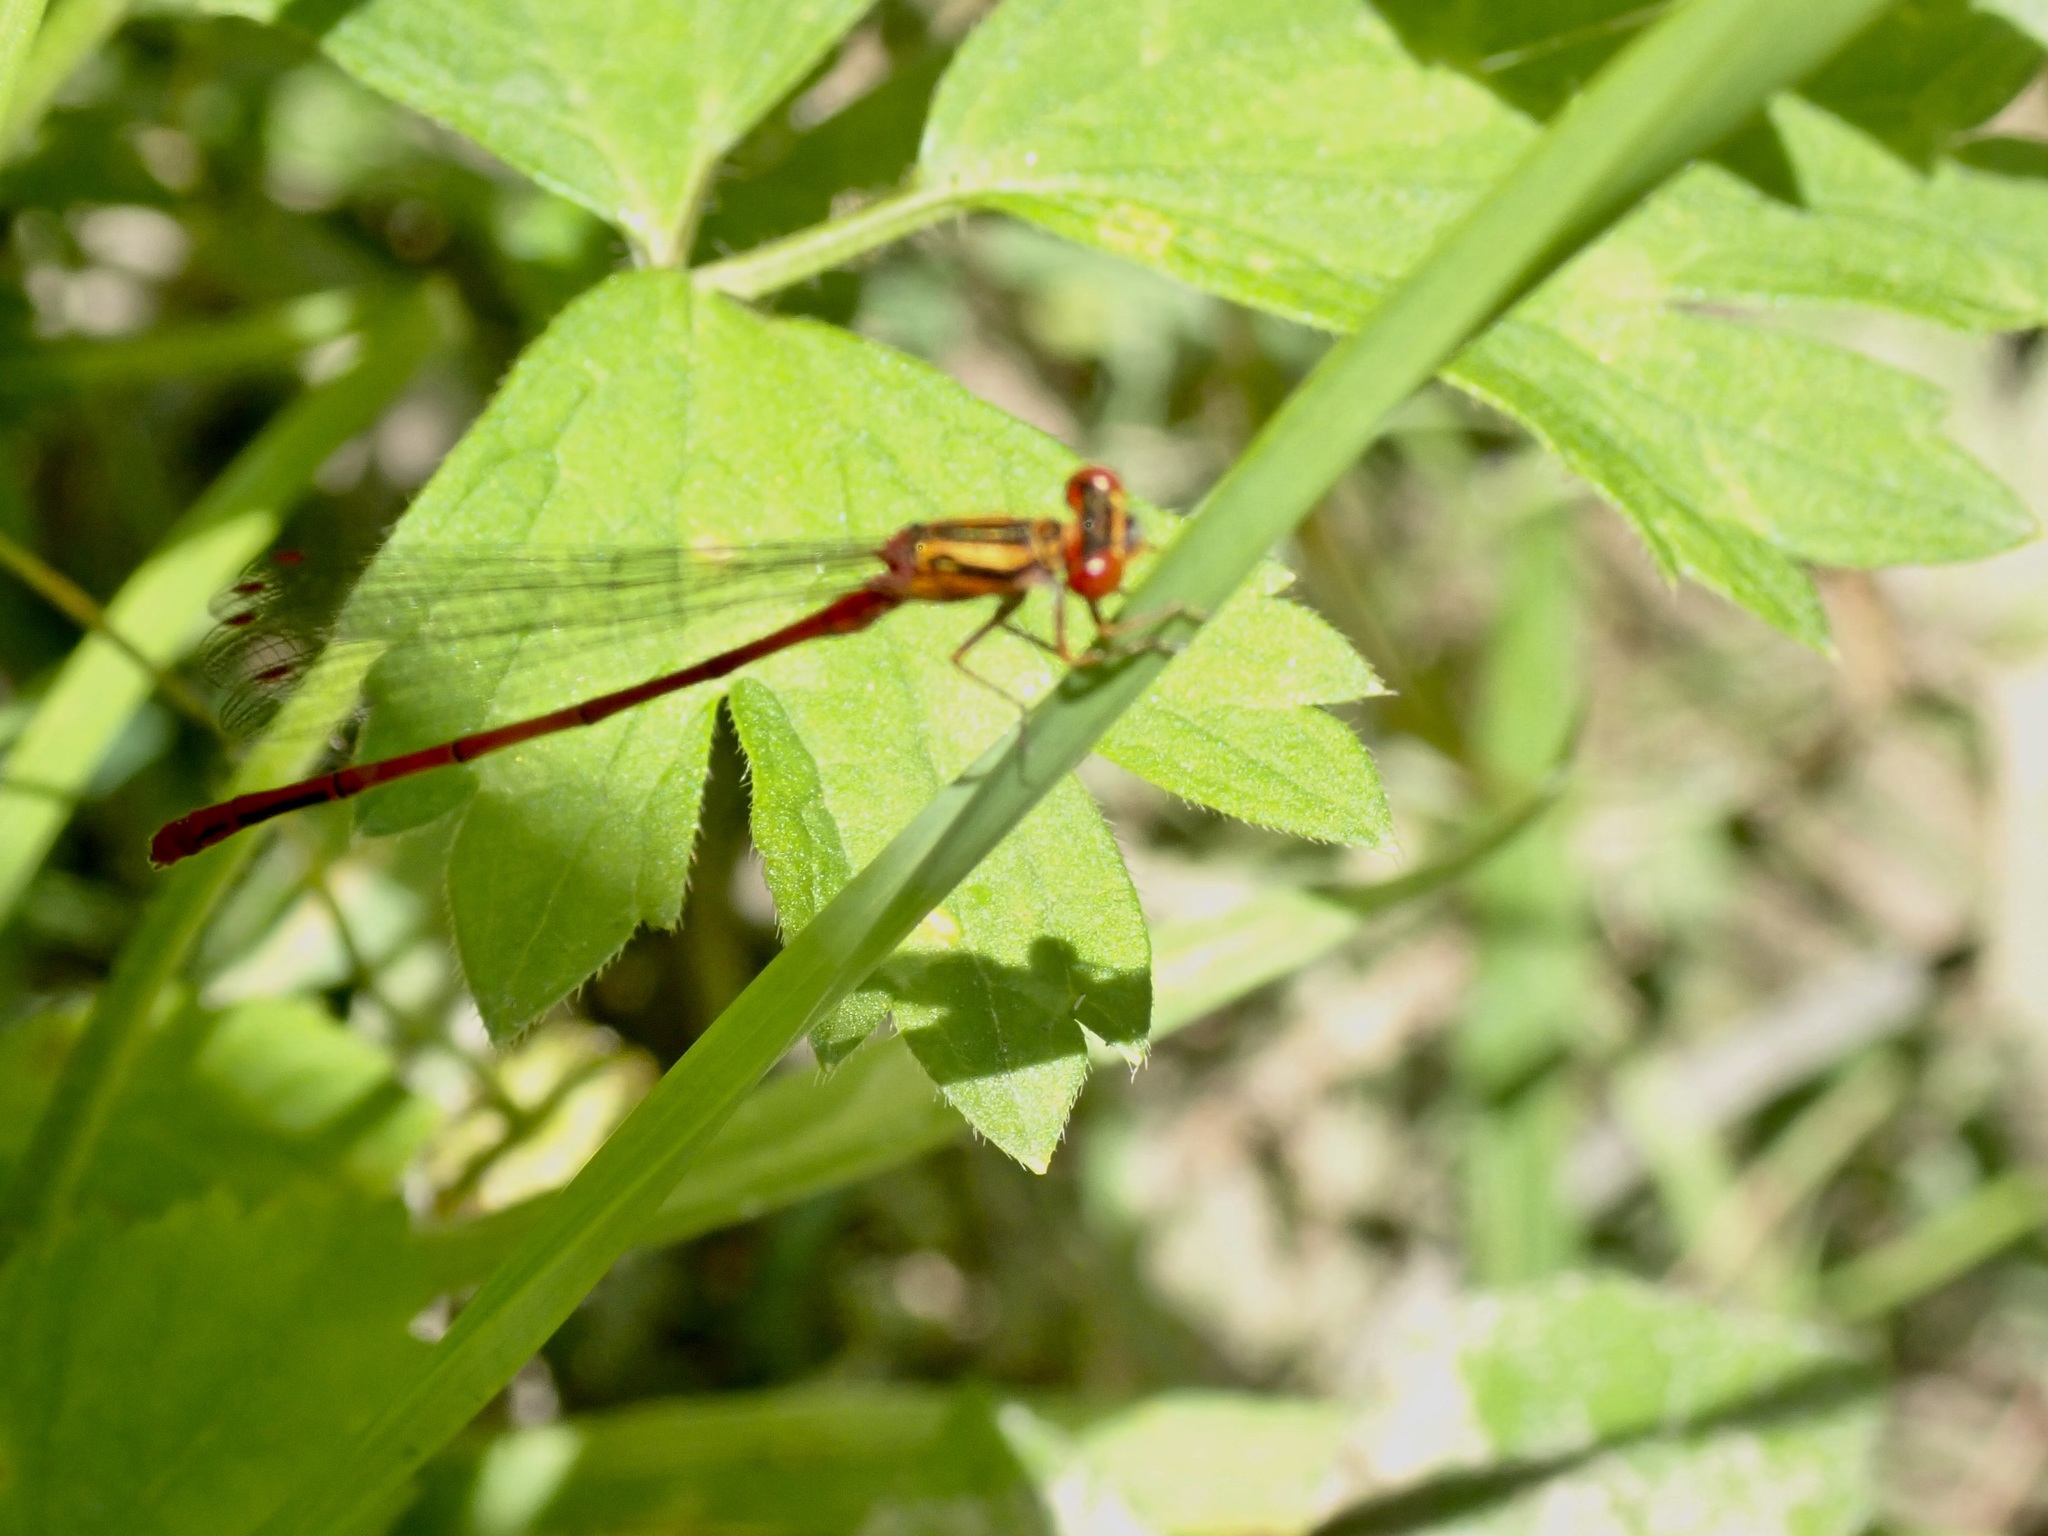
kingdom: Animalia
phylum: Arthropoda
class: Insecta
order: Odonata
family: Coenagrionidae
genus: Xanthocnemis
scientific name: Xanthocnemis zealandica
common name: Common redcoat damselfly
